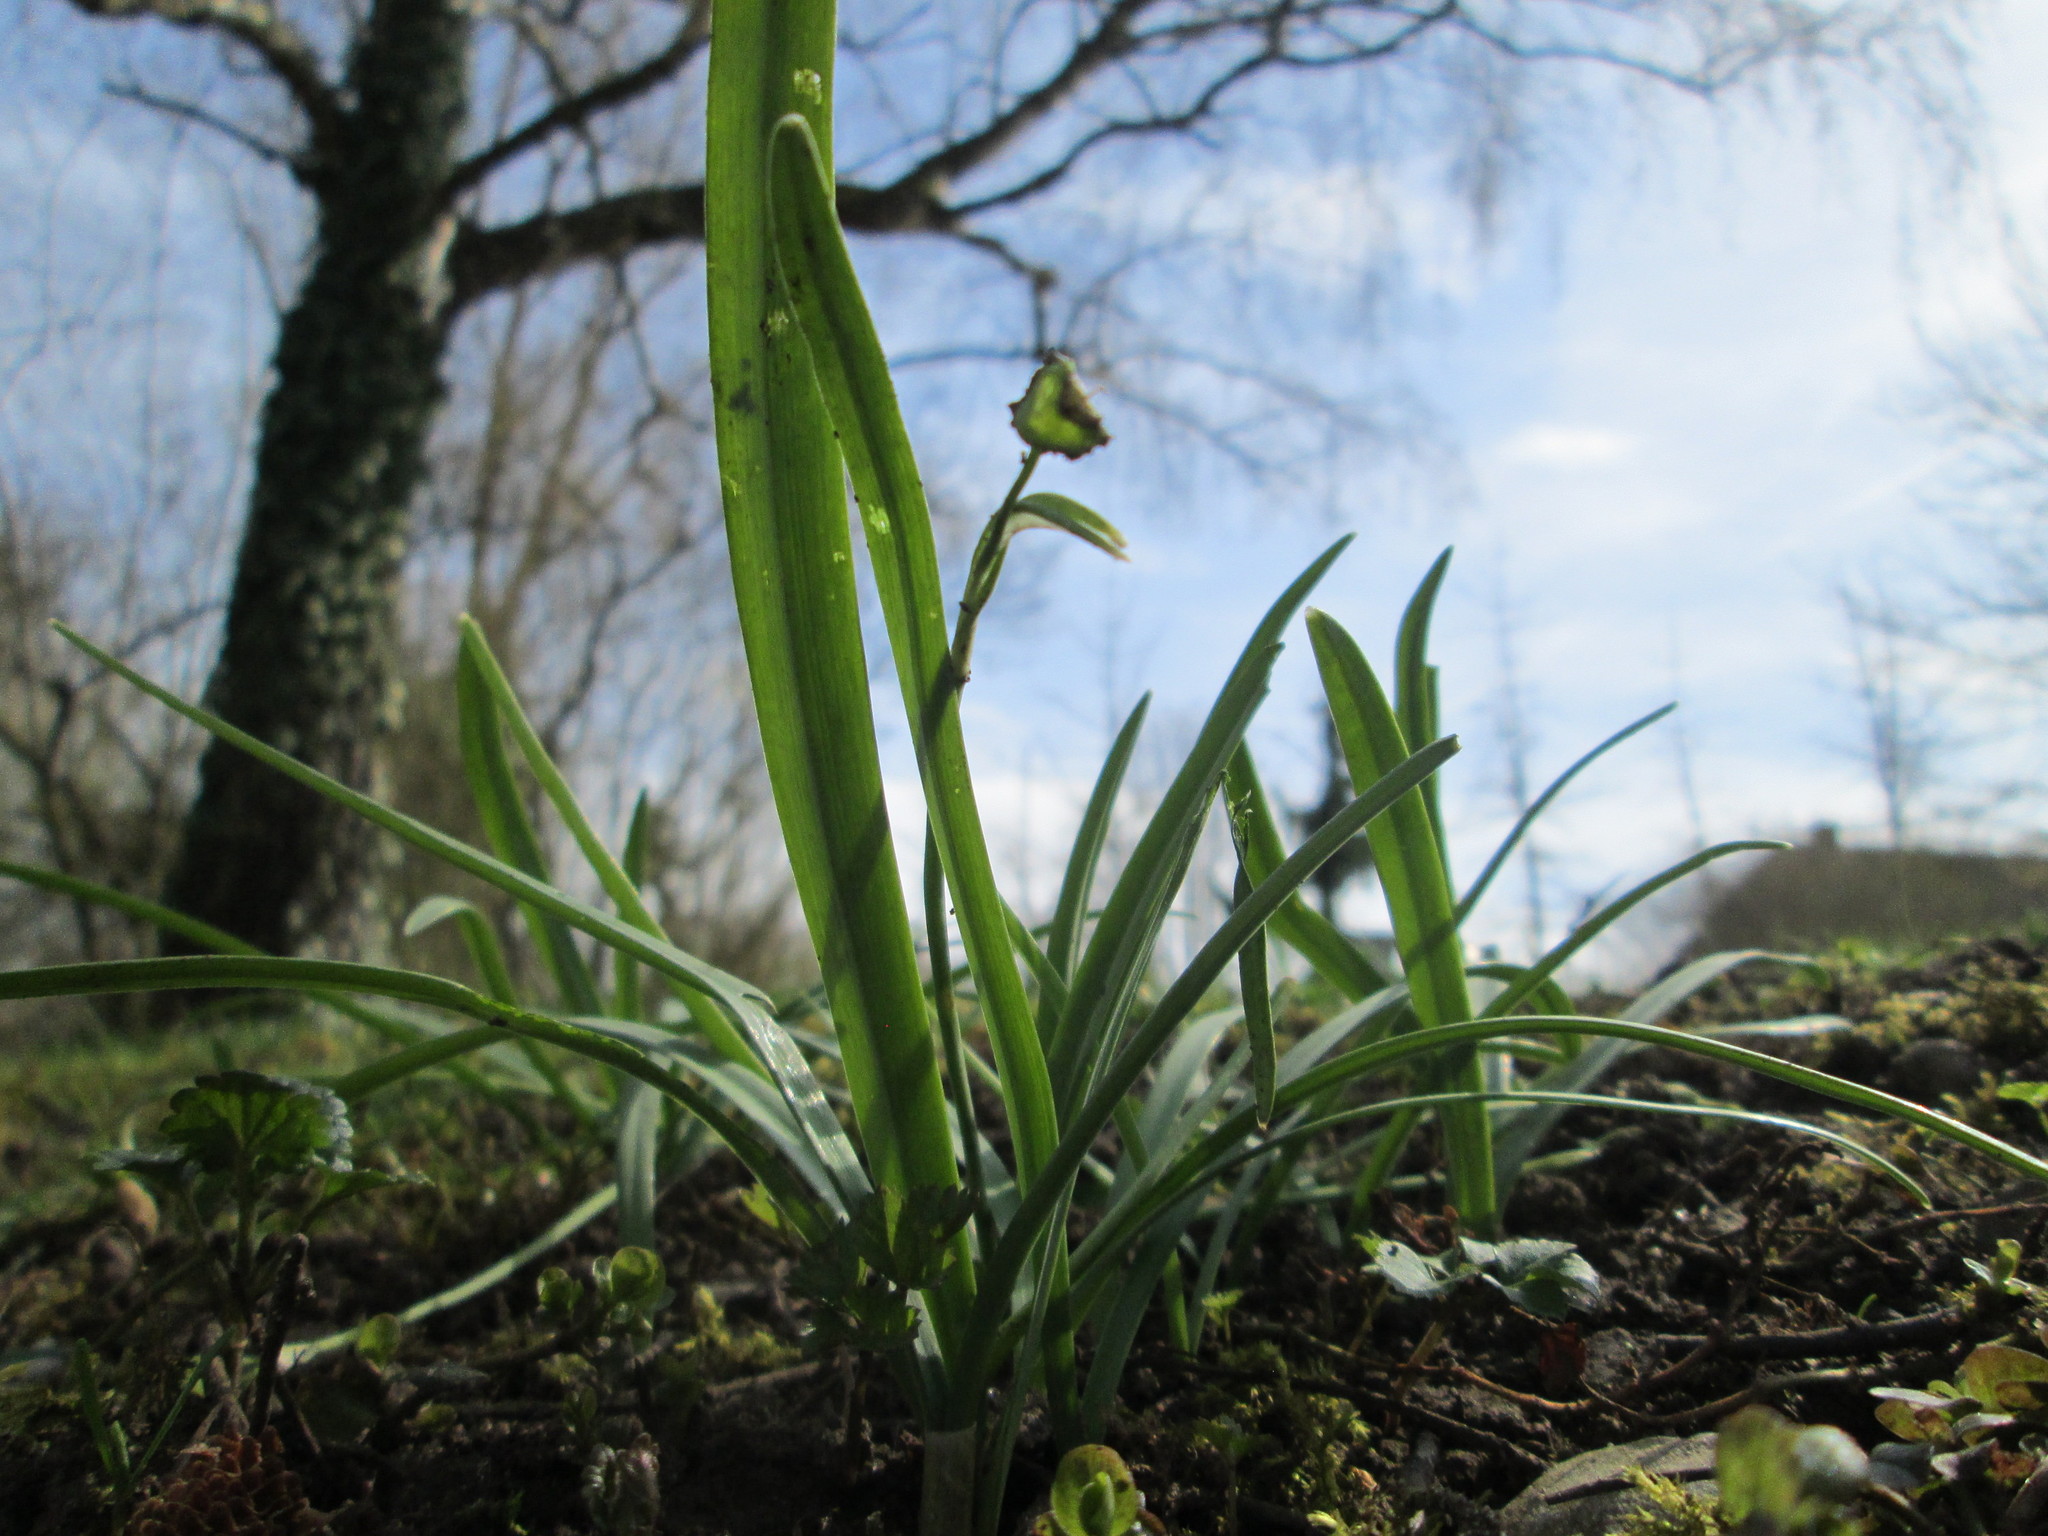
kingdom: Plantae
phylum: Tracheophyta
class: Liliopsida
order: Asparagales
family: Amaryllidaceae
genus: Galanthus
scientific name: Galanthus nivalis
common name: Snowdrop
